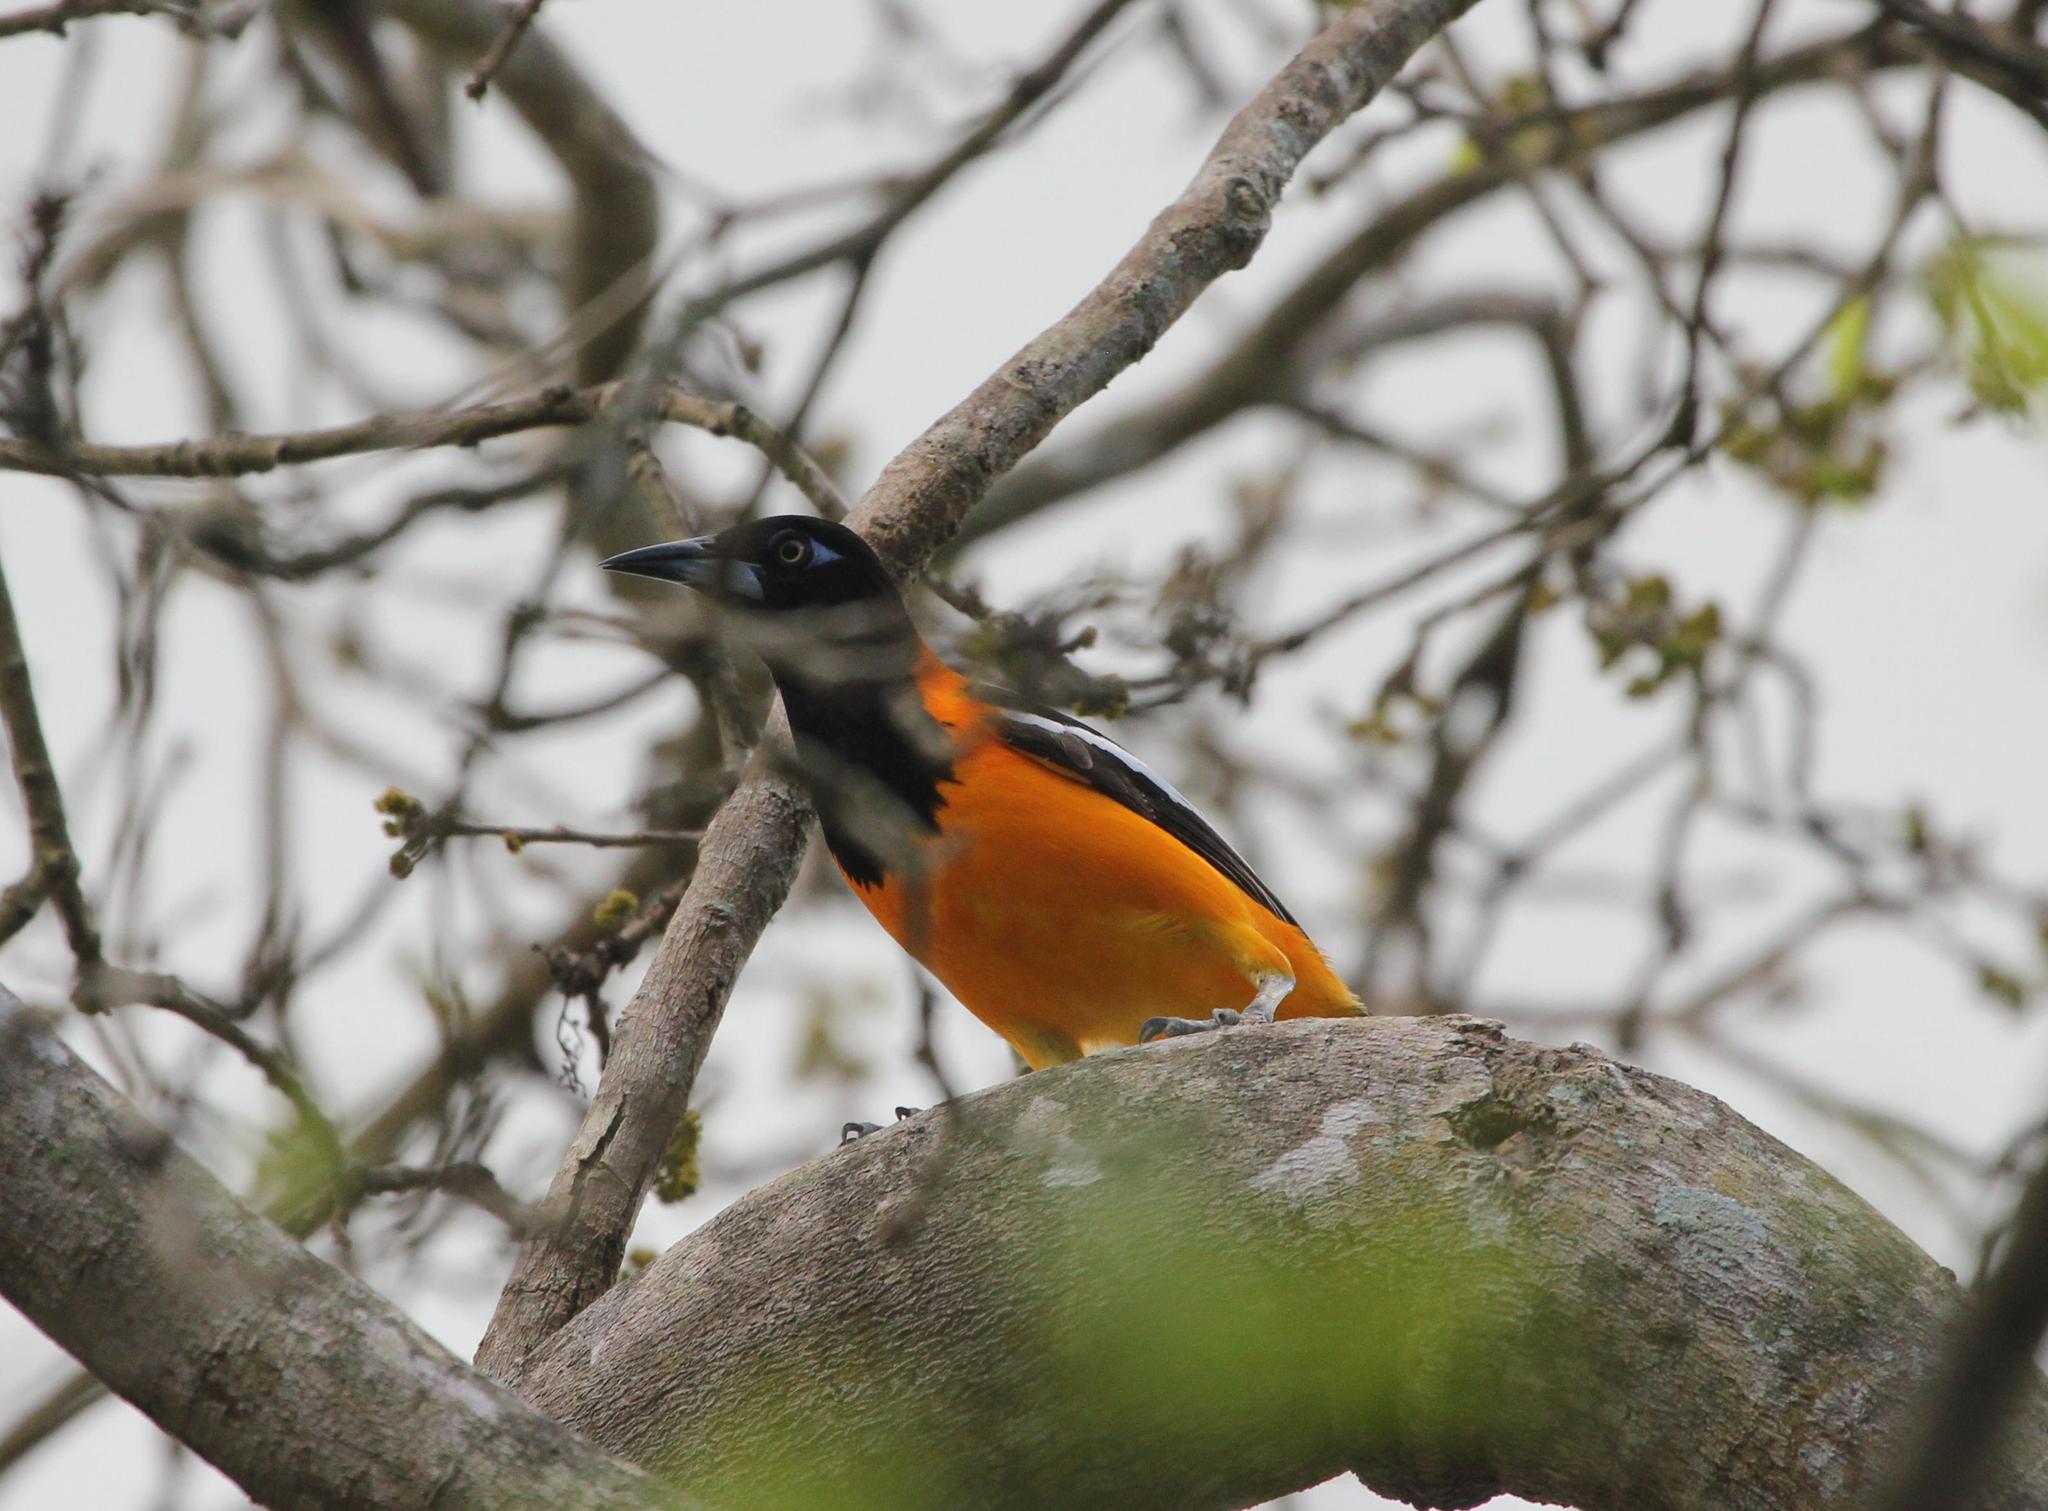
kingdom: Animalia
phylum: Chordata
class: Aves
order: Passeriformes
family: Icteridae
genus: Icterus
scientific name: Icterus icterus
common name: Venezuelan troupial
